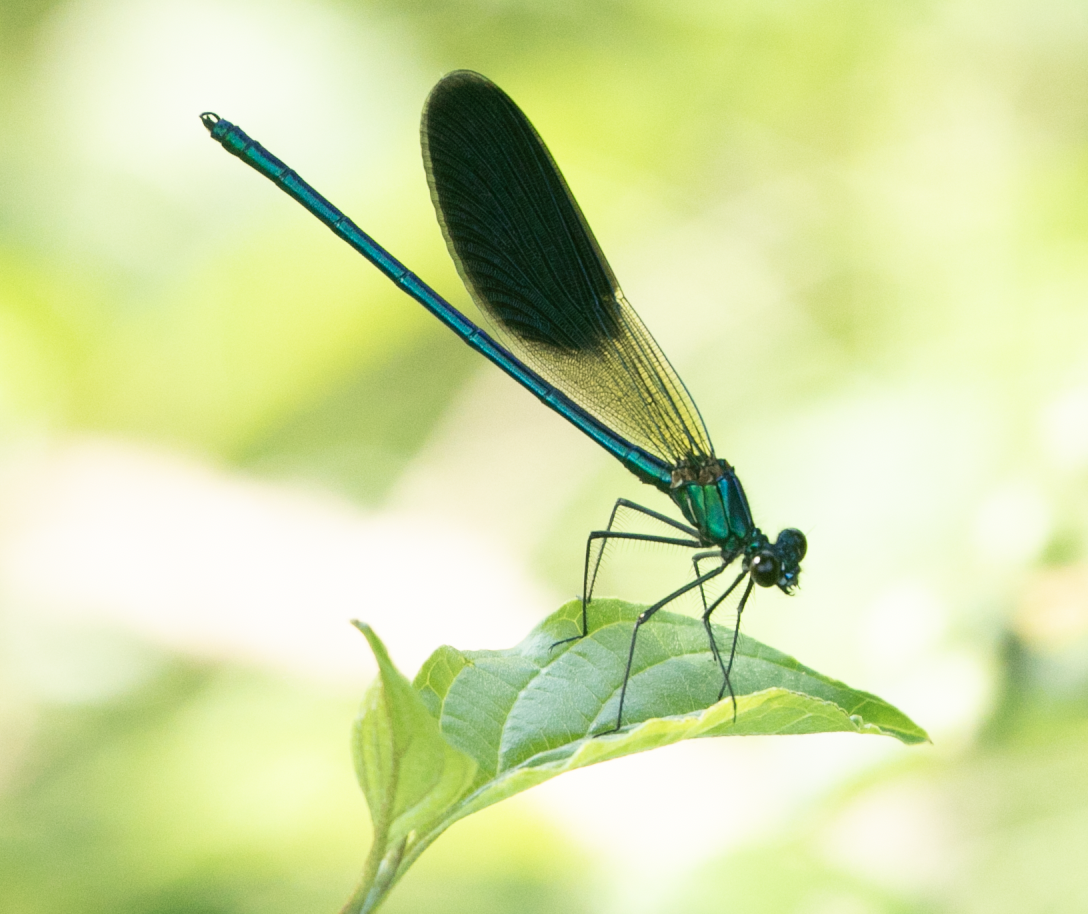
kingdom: Animalia
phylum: Arthropoda
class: Insecta
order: Odonata
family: Calopterygidae
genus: Calopteryx
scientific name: Calopteryx splendens
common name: Banded demoiselle
